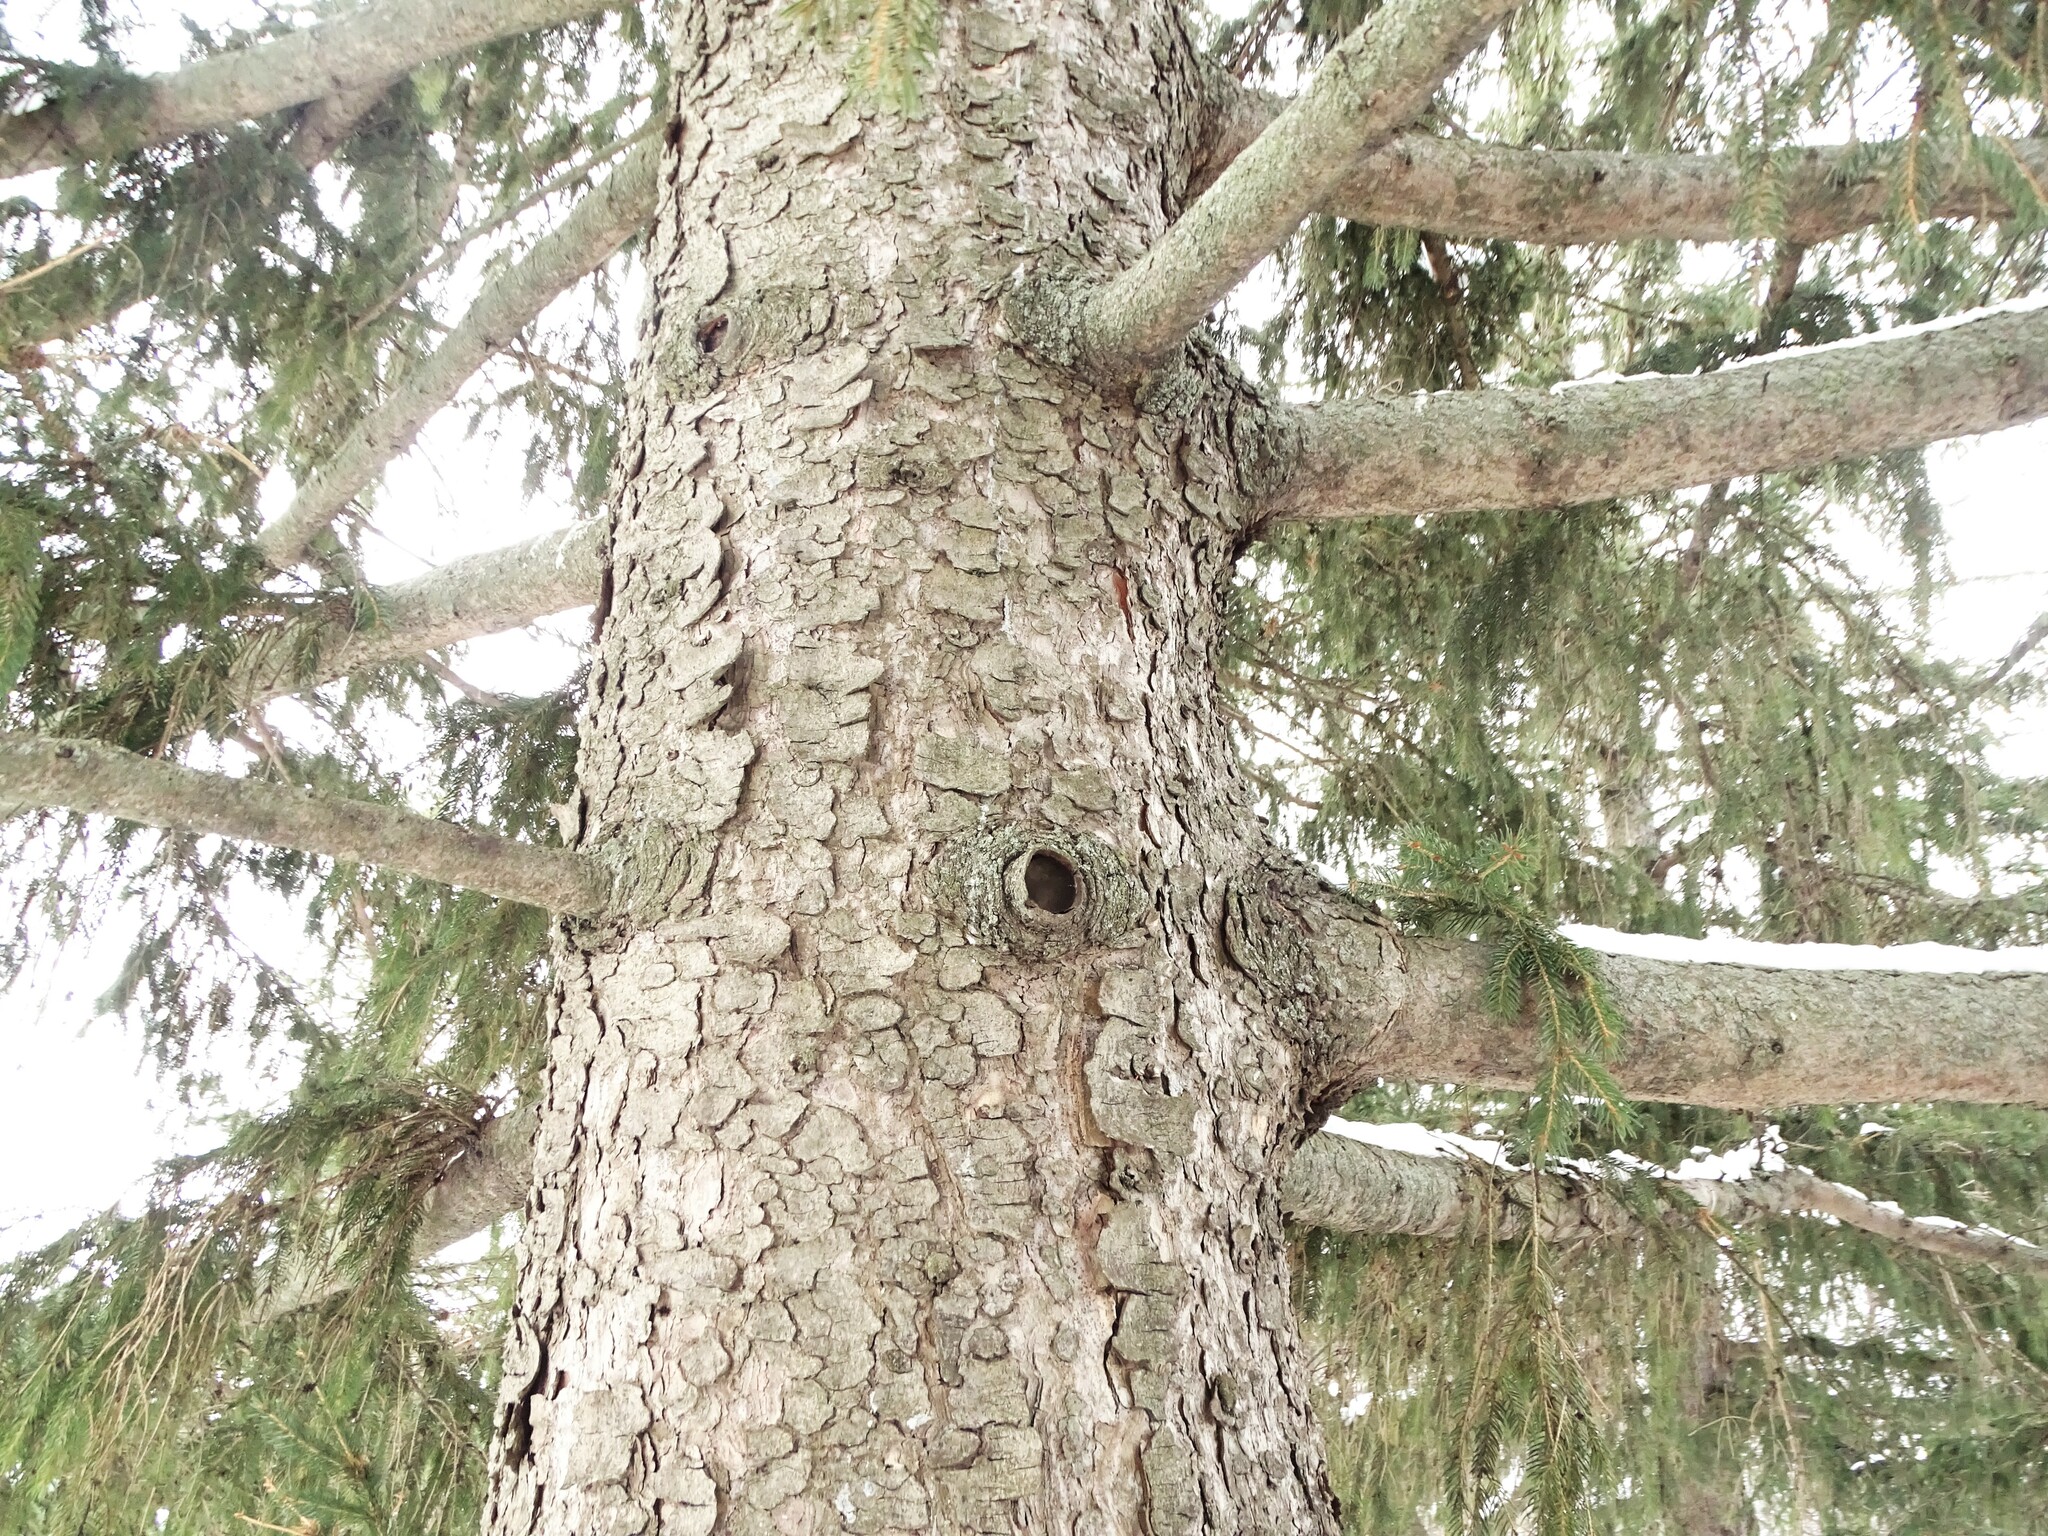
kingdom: Plantae
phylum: Tracheophyta
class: Pinopsida
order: Pinales
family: Pinaceae
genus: Picea
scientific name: Picea abies
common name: Norway spruce
